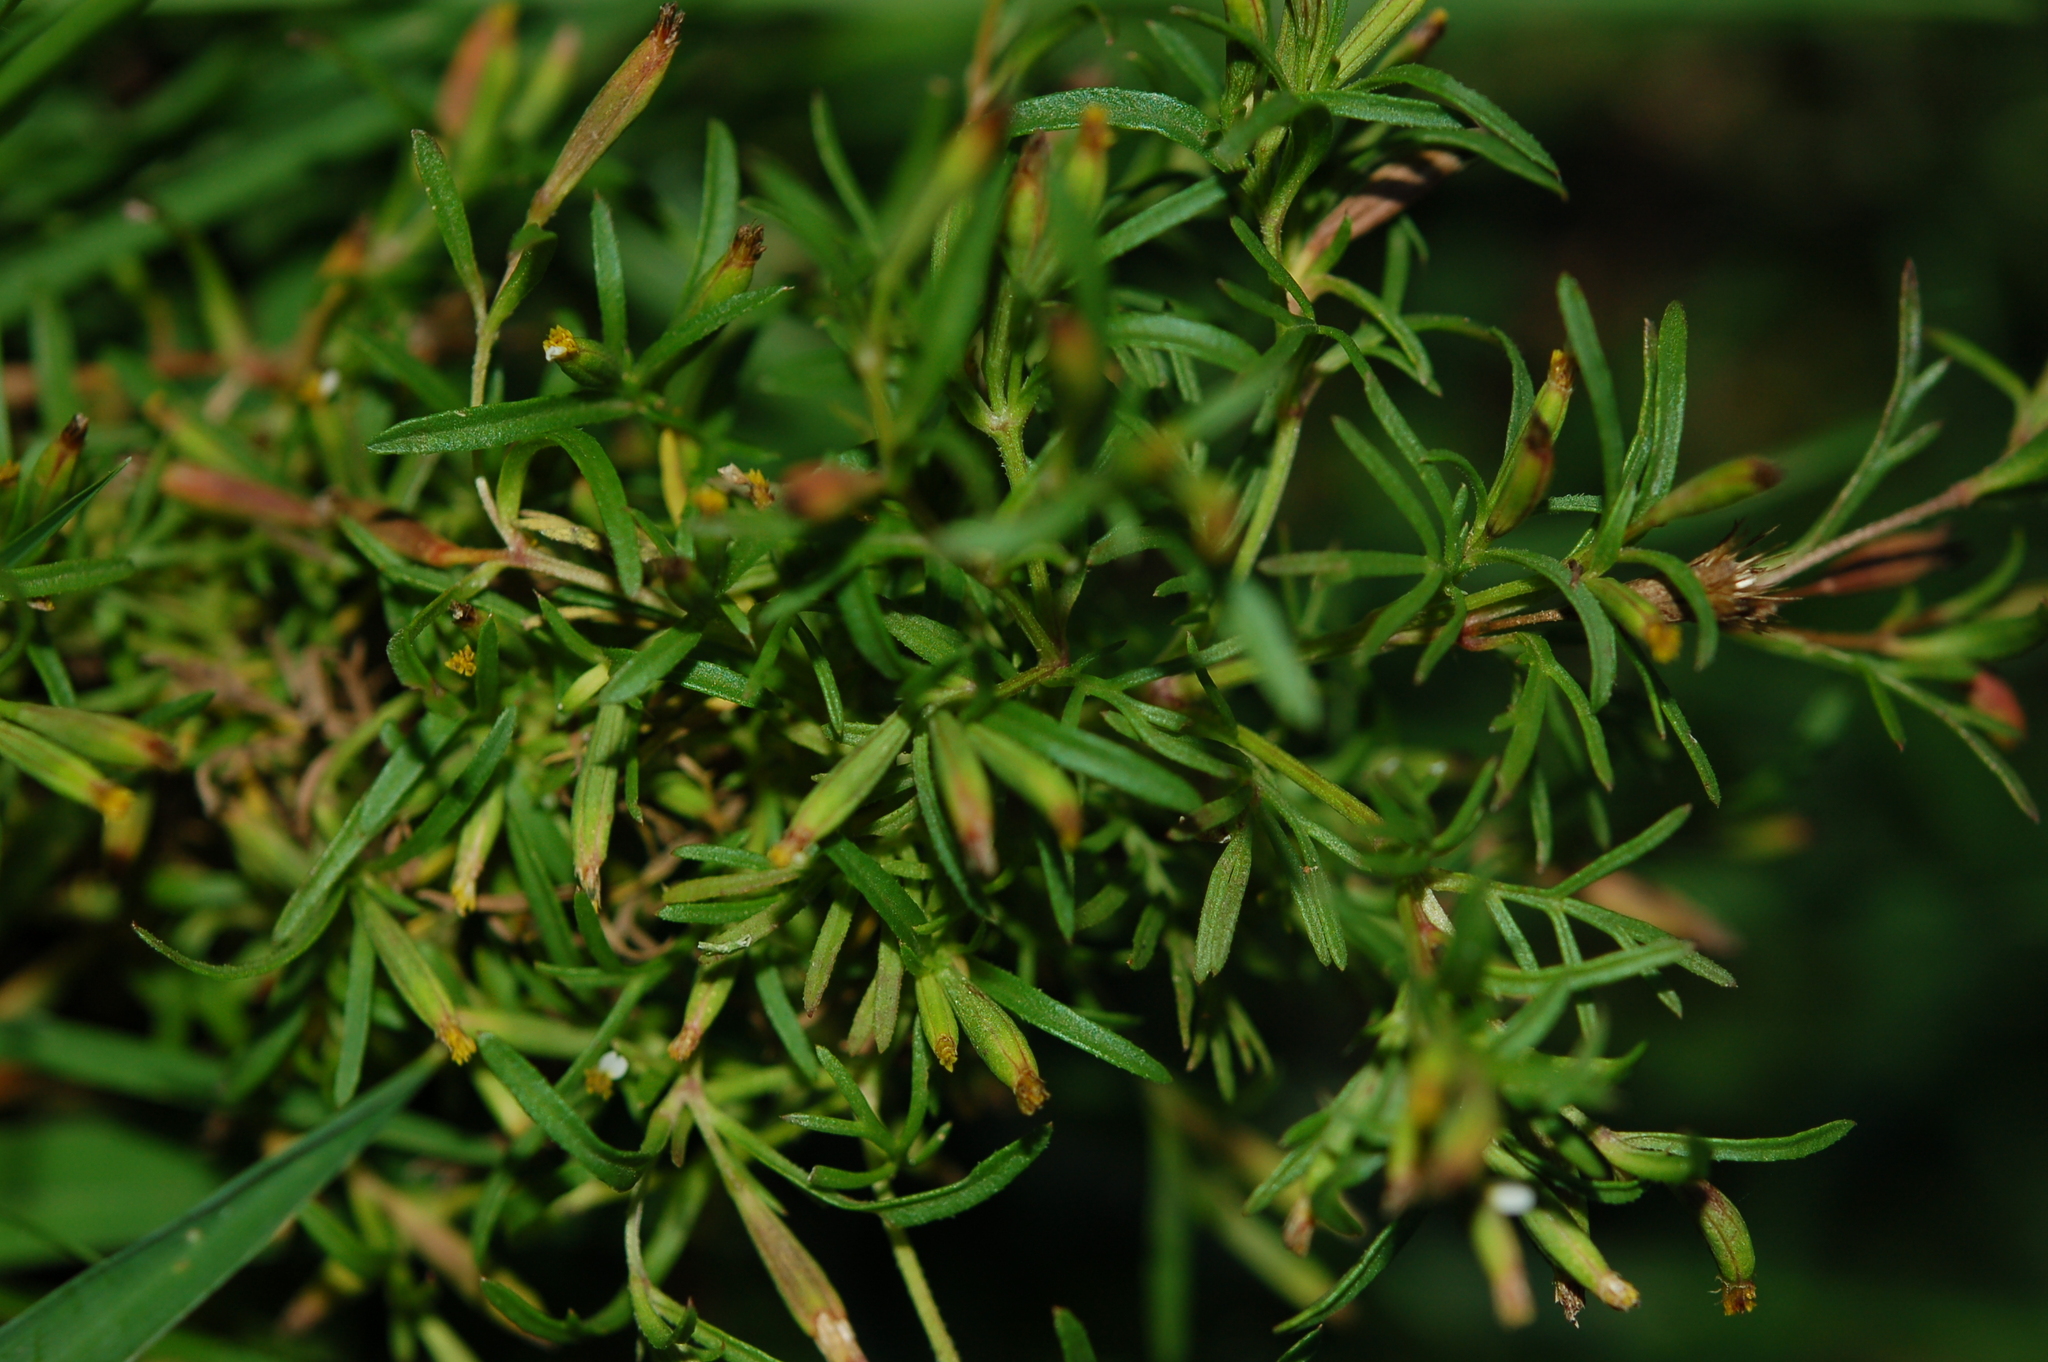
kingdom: Plantae
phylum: Tracheophyta
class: Magnoliopsida
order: Asterales
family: Asteraceae
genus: Tagetes
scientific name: Tagetes filifolia
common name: Lesser marigold
